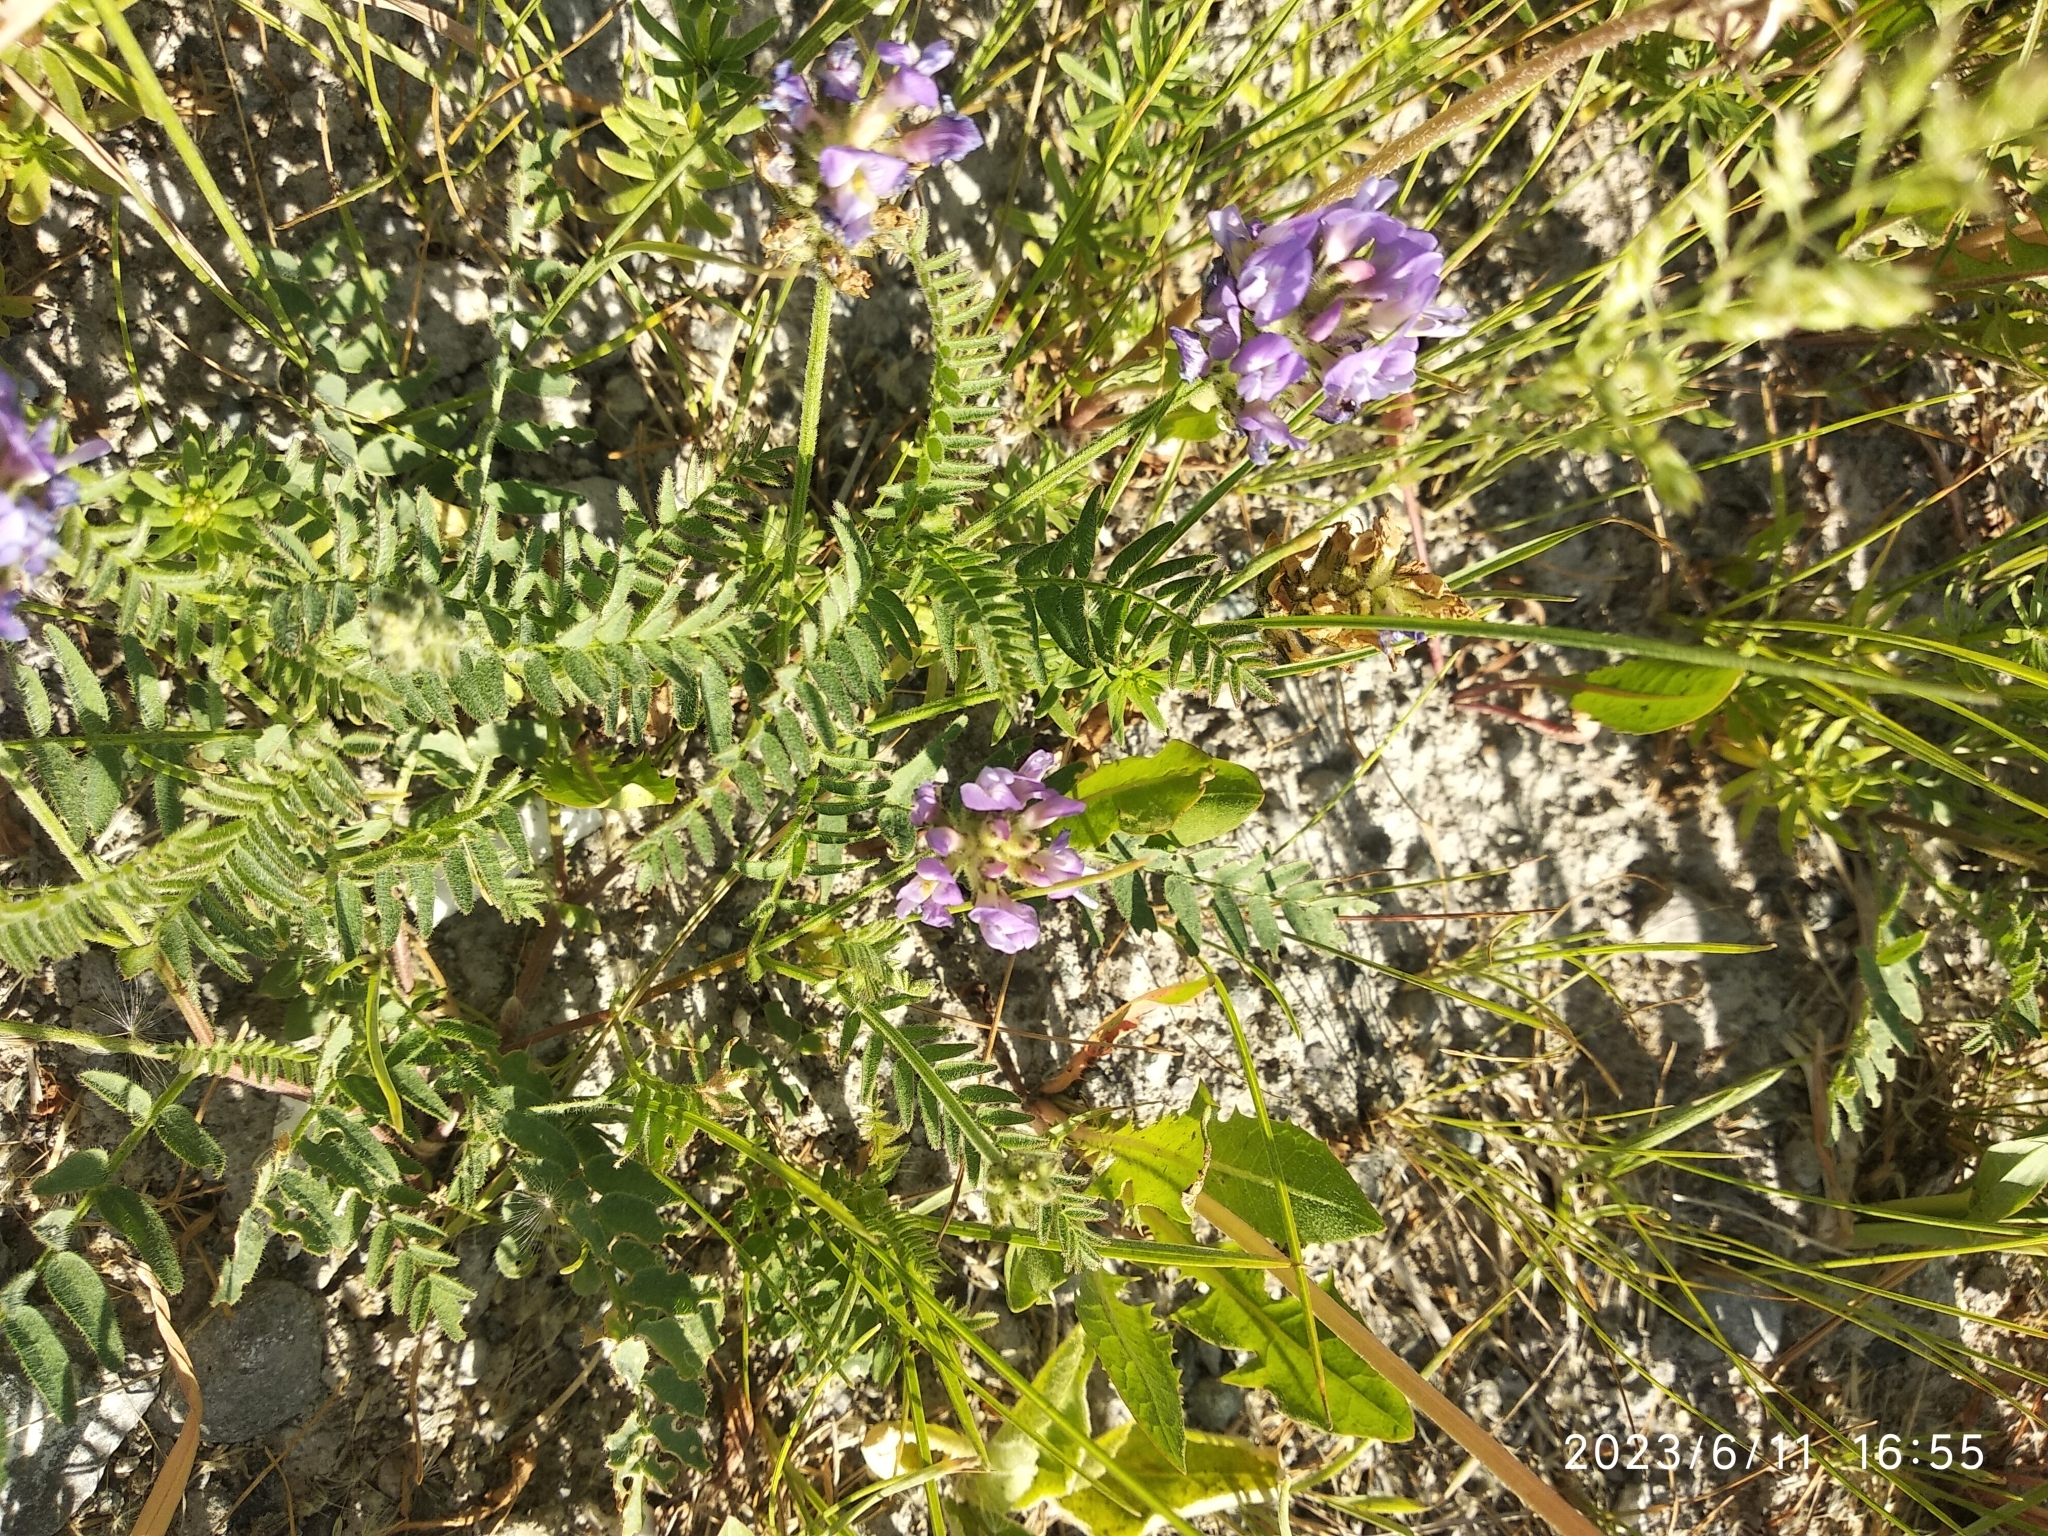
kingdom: Plantae
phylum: Tracheophyta
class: Magnoliopsida
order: Fabales
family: Fabaceae
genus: Astragalus
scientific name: Astragalus danicus
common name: Purple milk-vetch
